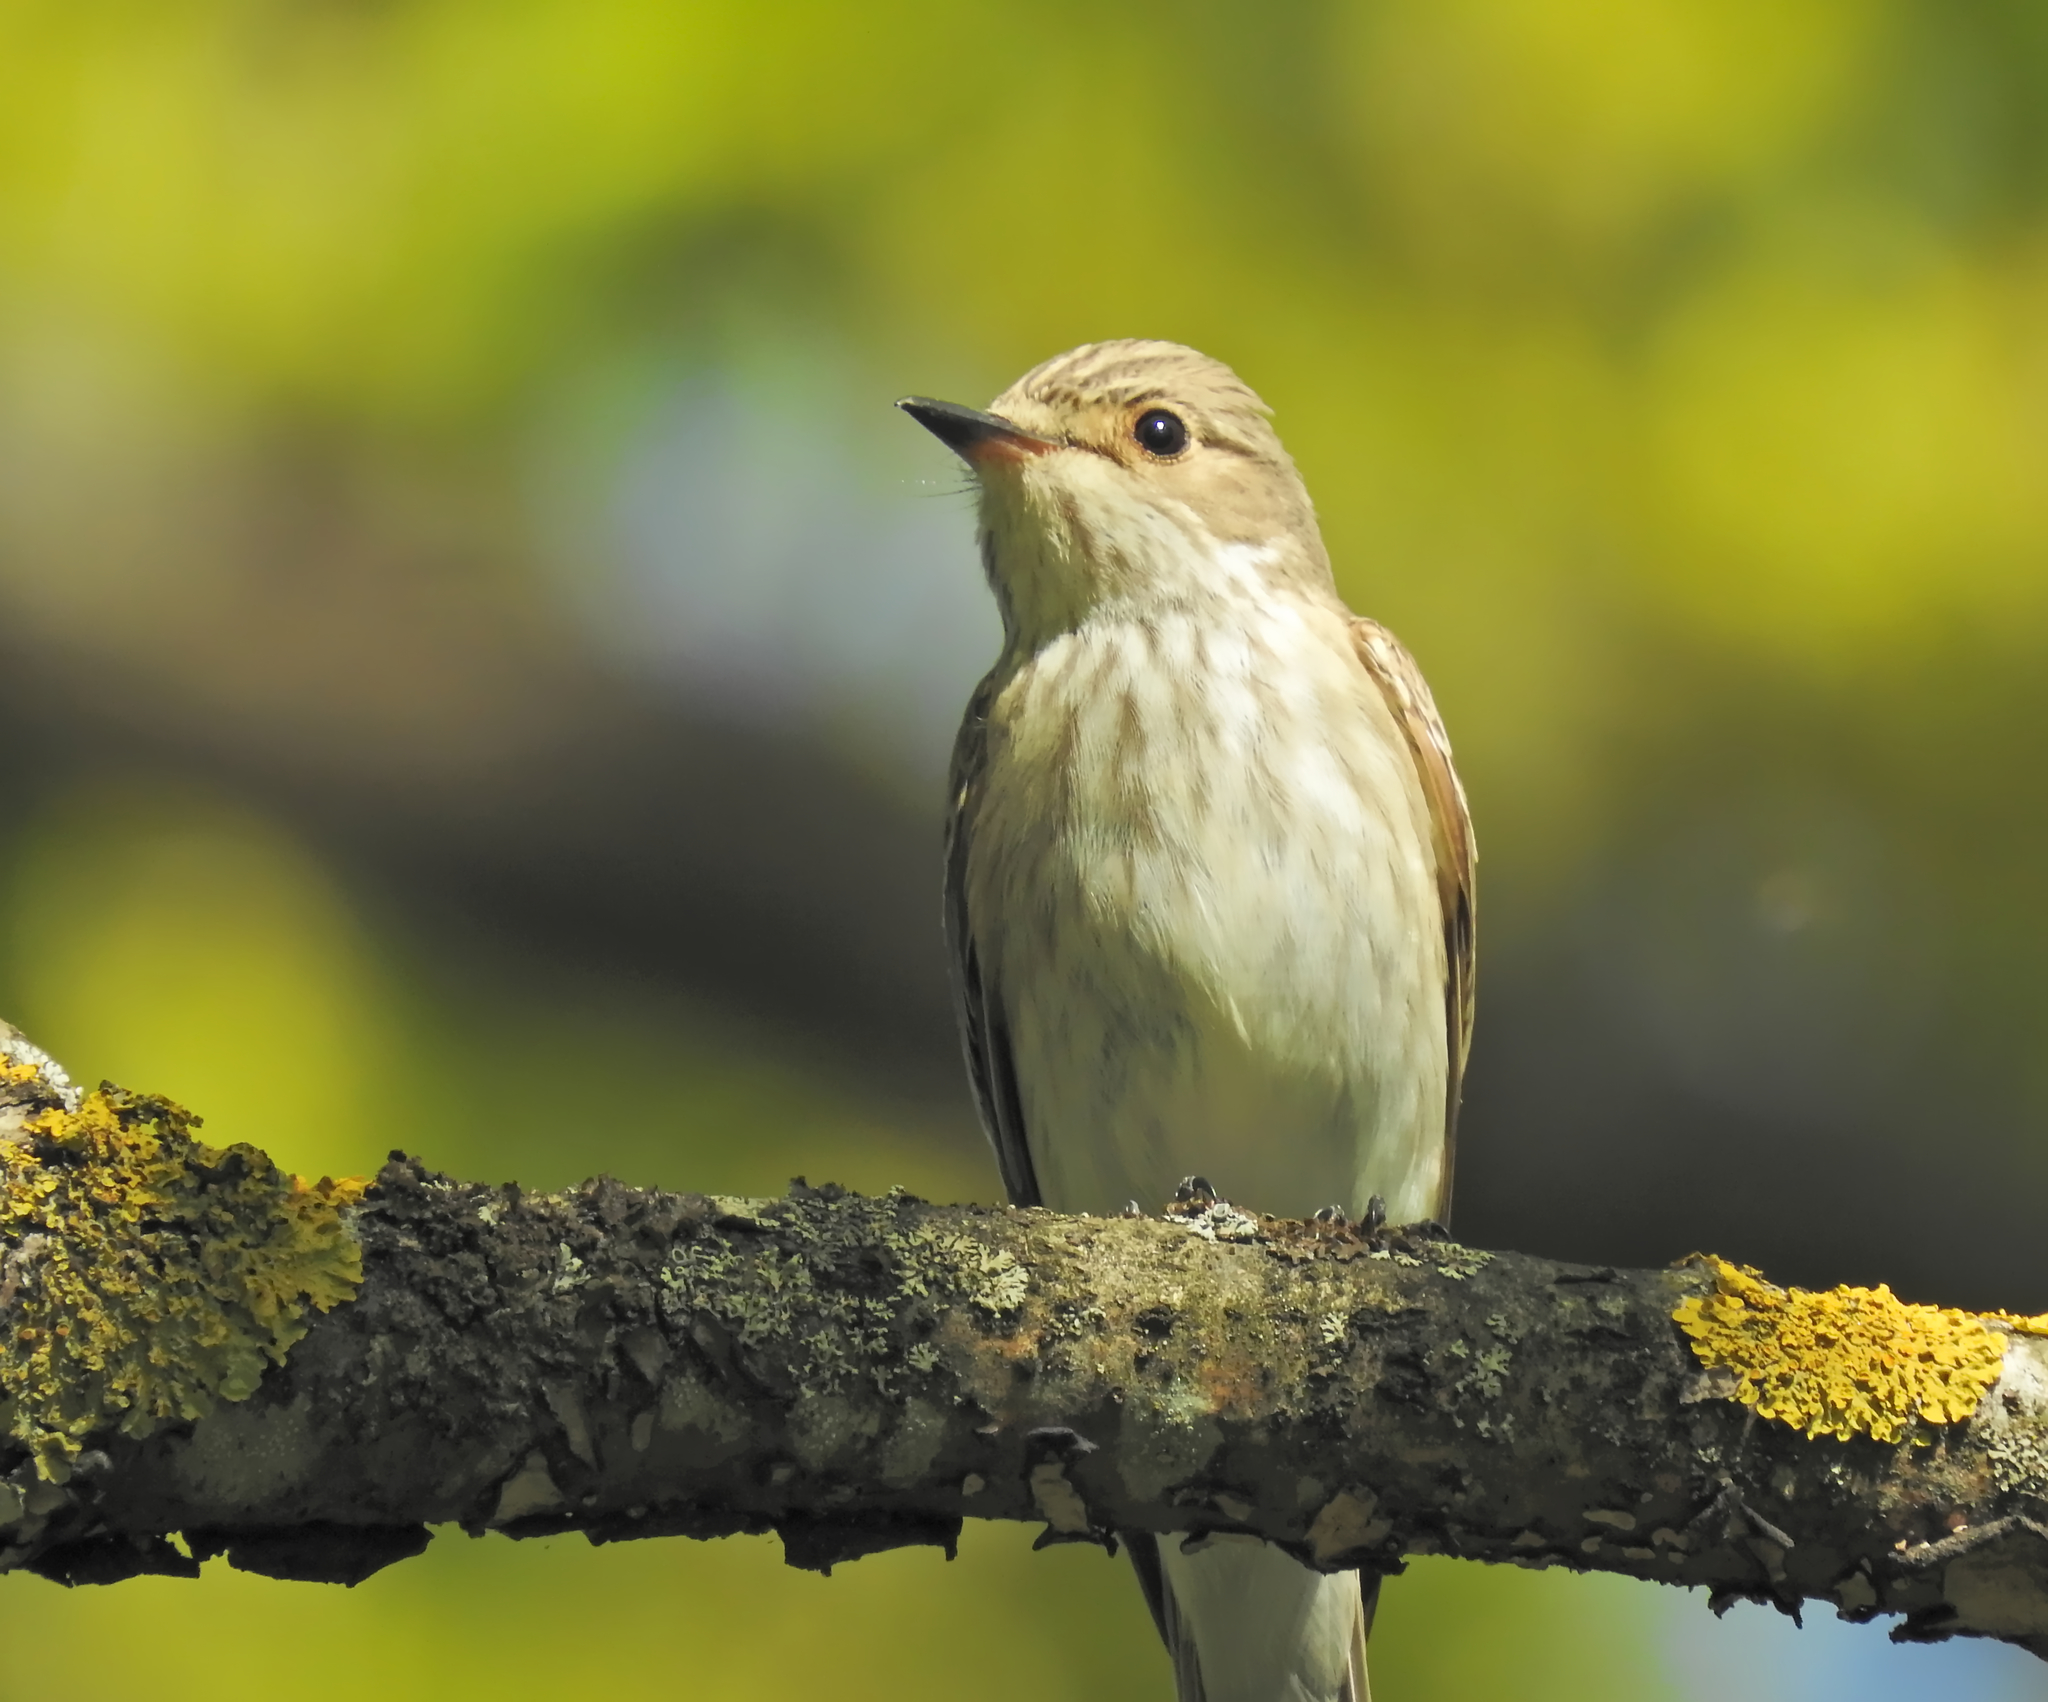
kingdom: Animalia
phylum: Chordata
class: Aves
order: Passeriformes
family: Muscicapidae
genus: Muscicapa
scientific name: Muscicapa striata
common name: Spotted flycatcher
